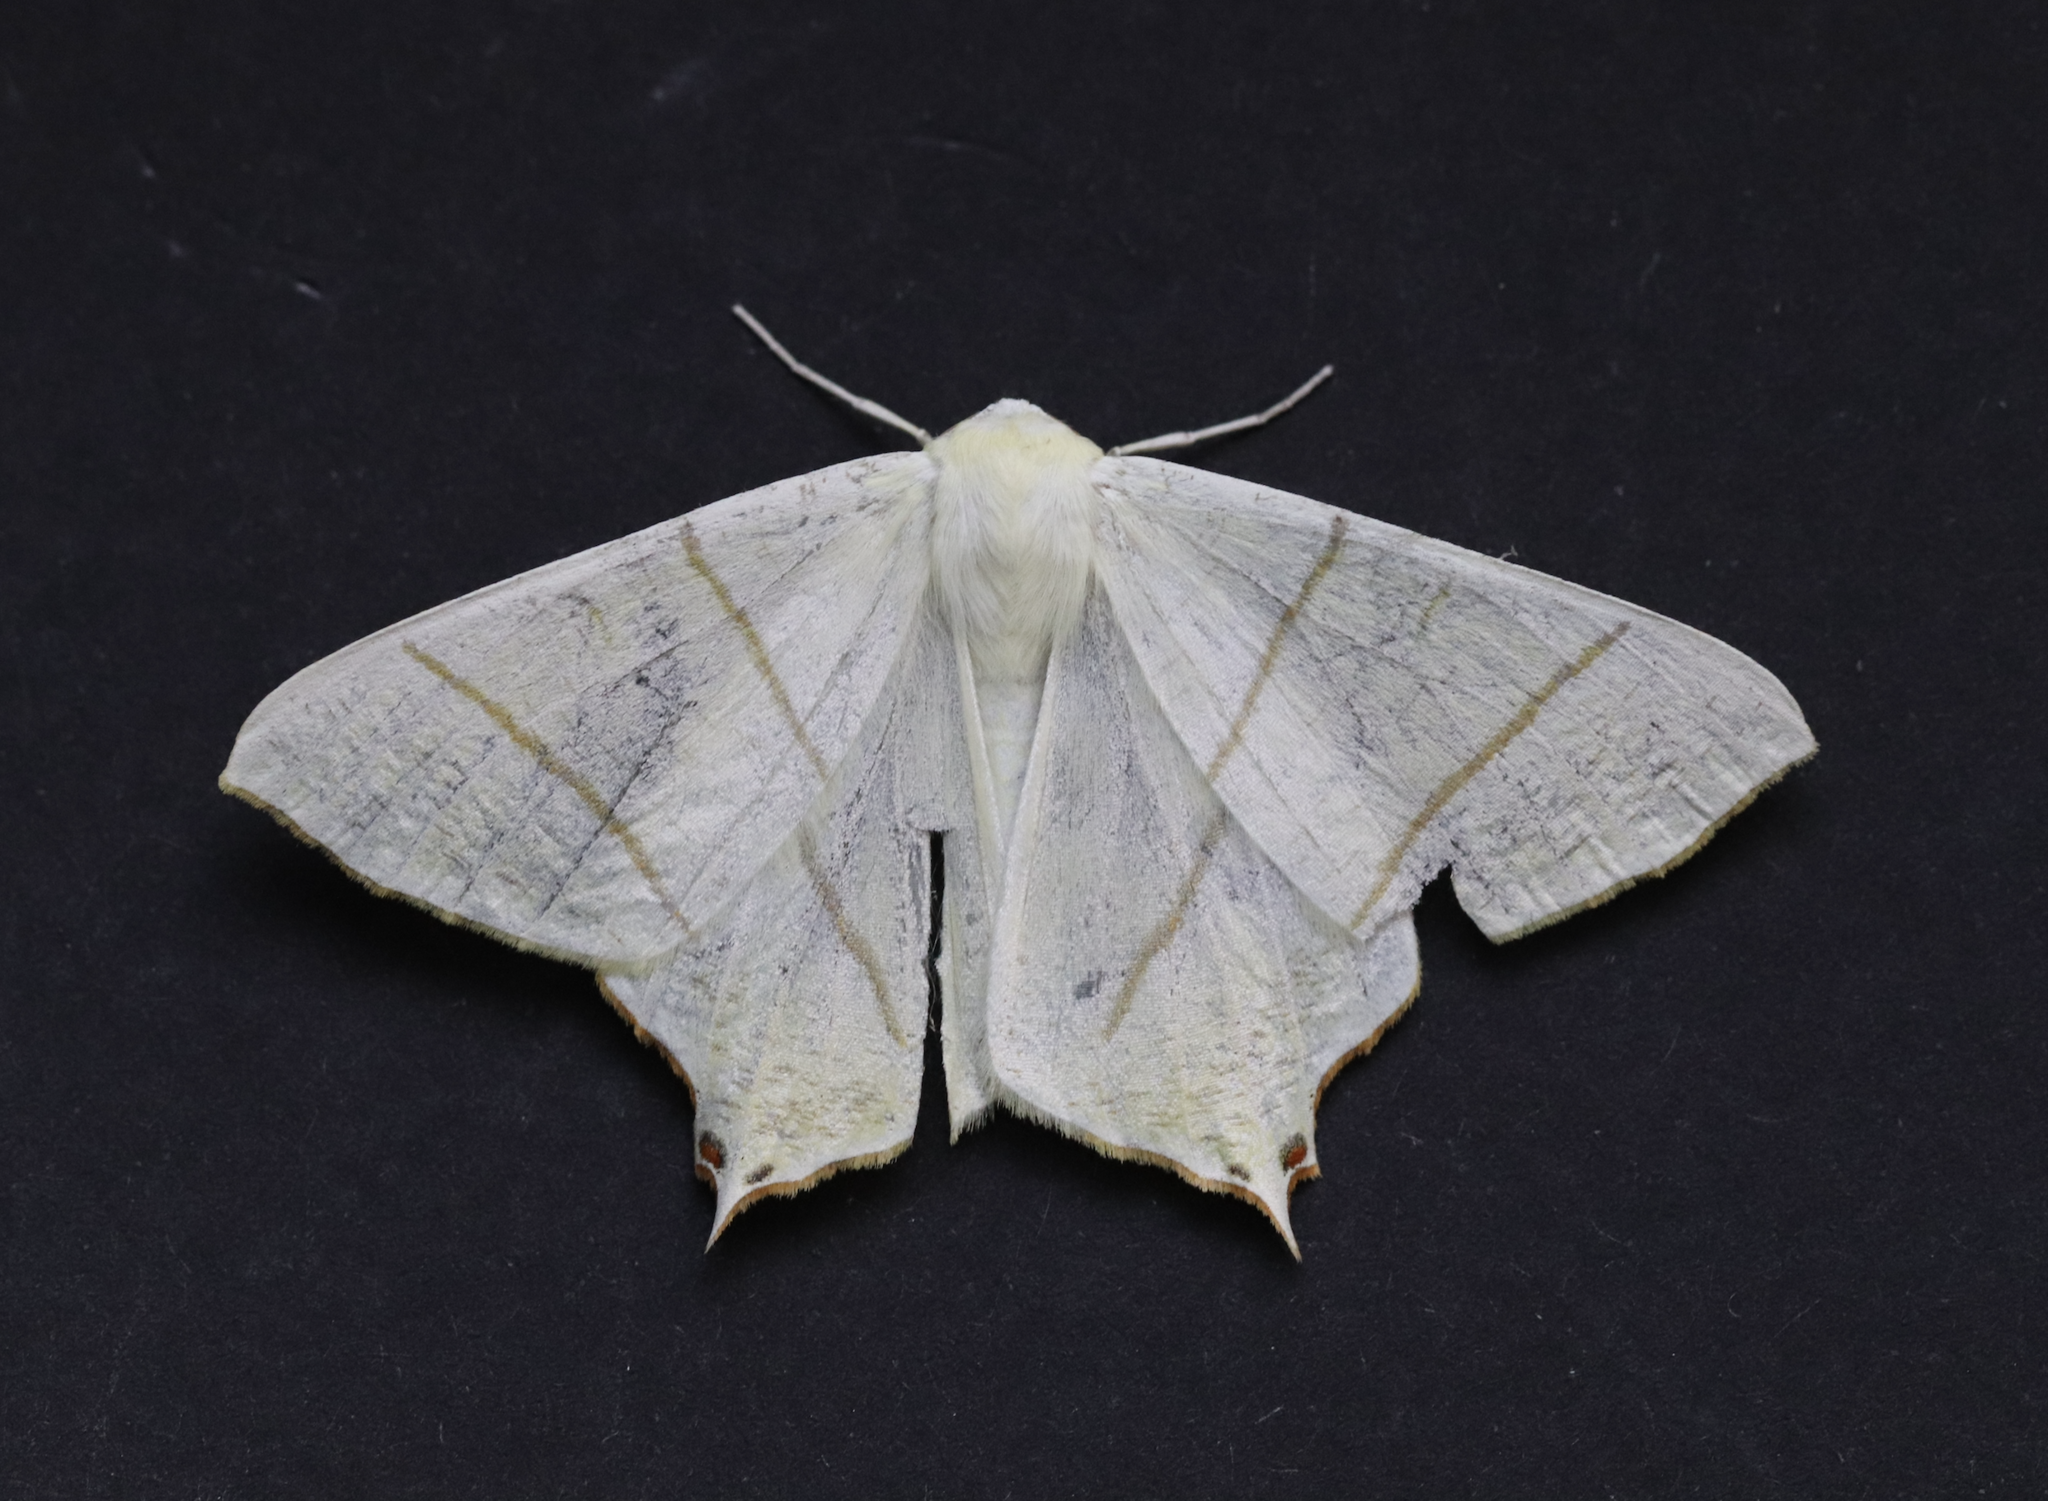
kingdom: Animalia
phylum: Arthropoda
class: Insecta
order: Lepidoptera
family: Geometridae
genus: Ourapteryx
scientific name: Ourapteryx sambucaria
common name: Swallow-tailed moth
